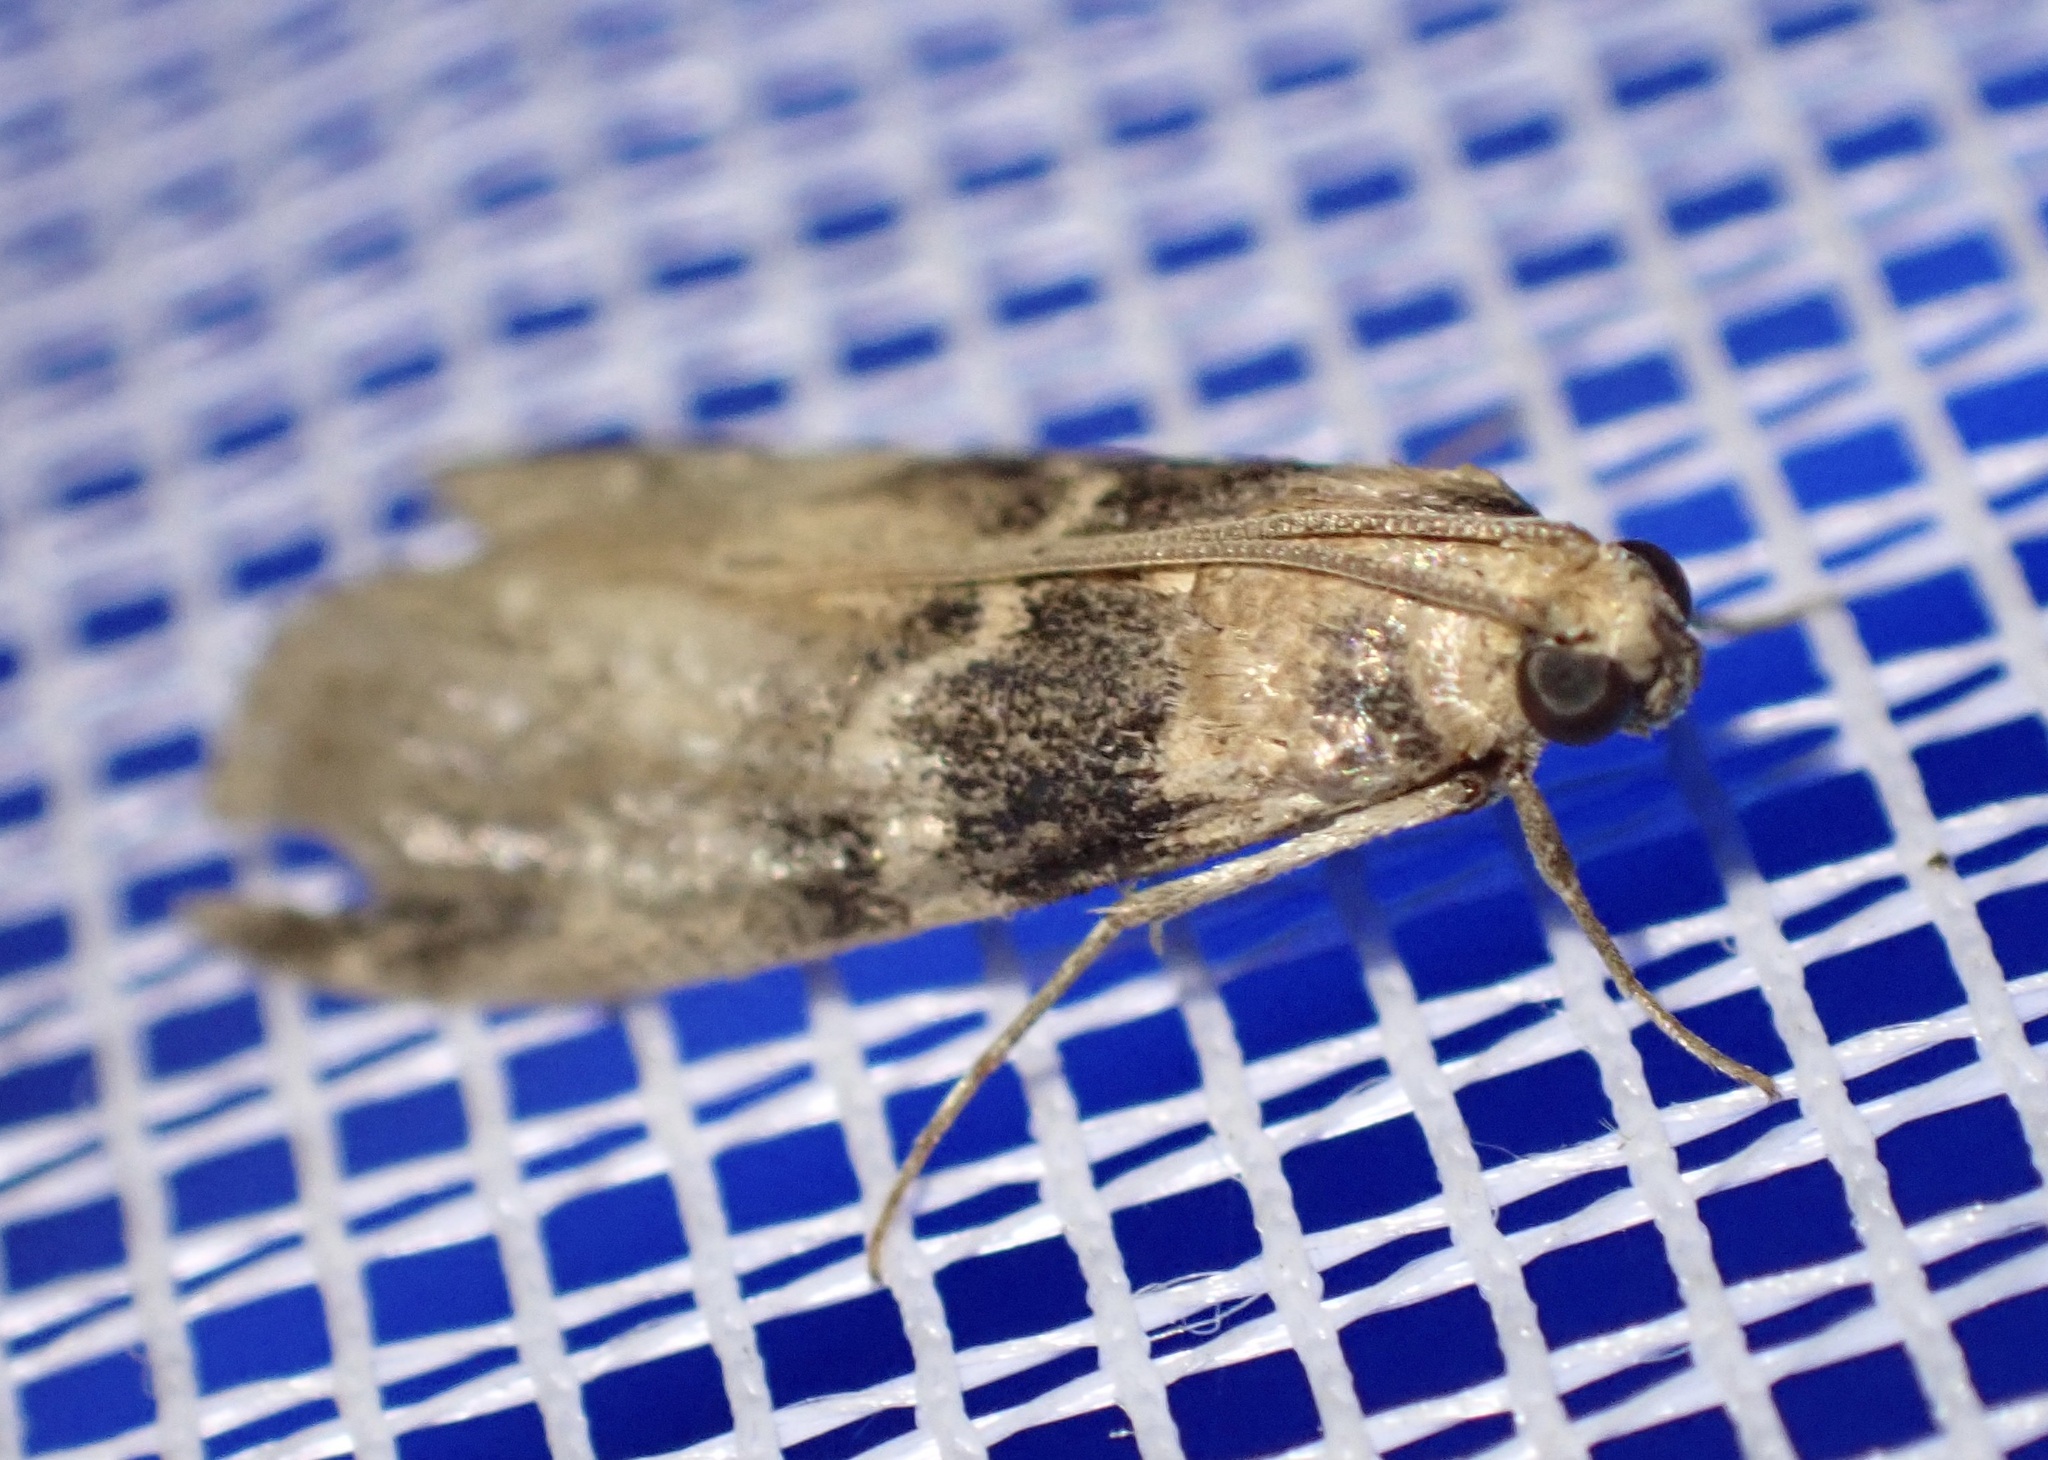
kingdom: Animalia
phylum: Arthropoda
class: Insecta
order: Lepidoptera
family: Pyralidae
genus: Euzophera
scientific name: Euzophera pinguis
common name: Ash-bark knot-horn
